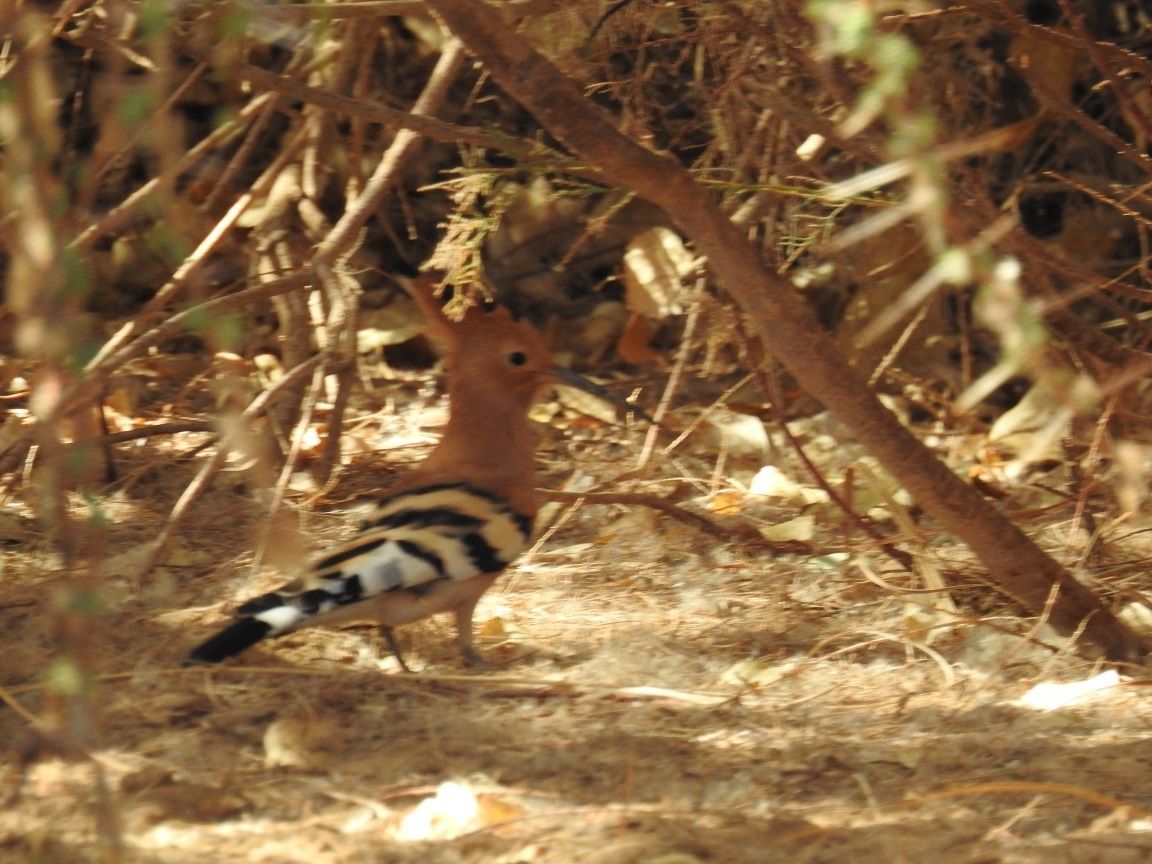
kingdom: Animalia
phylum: Chordata
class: Aves
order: Bucerotiformes
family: Upupidae
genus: Upupa
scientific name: Upupa epops
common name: Eurasian hoopoe
